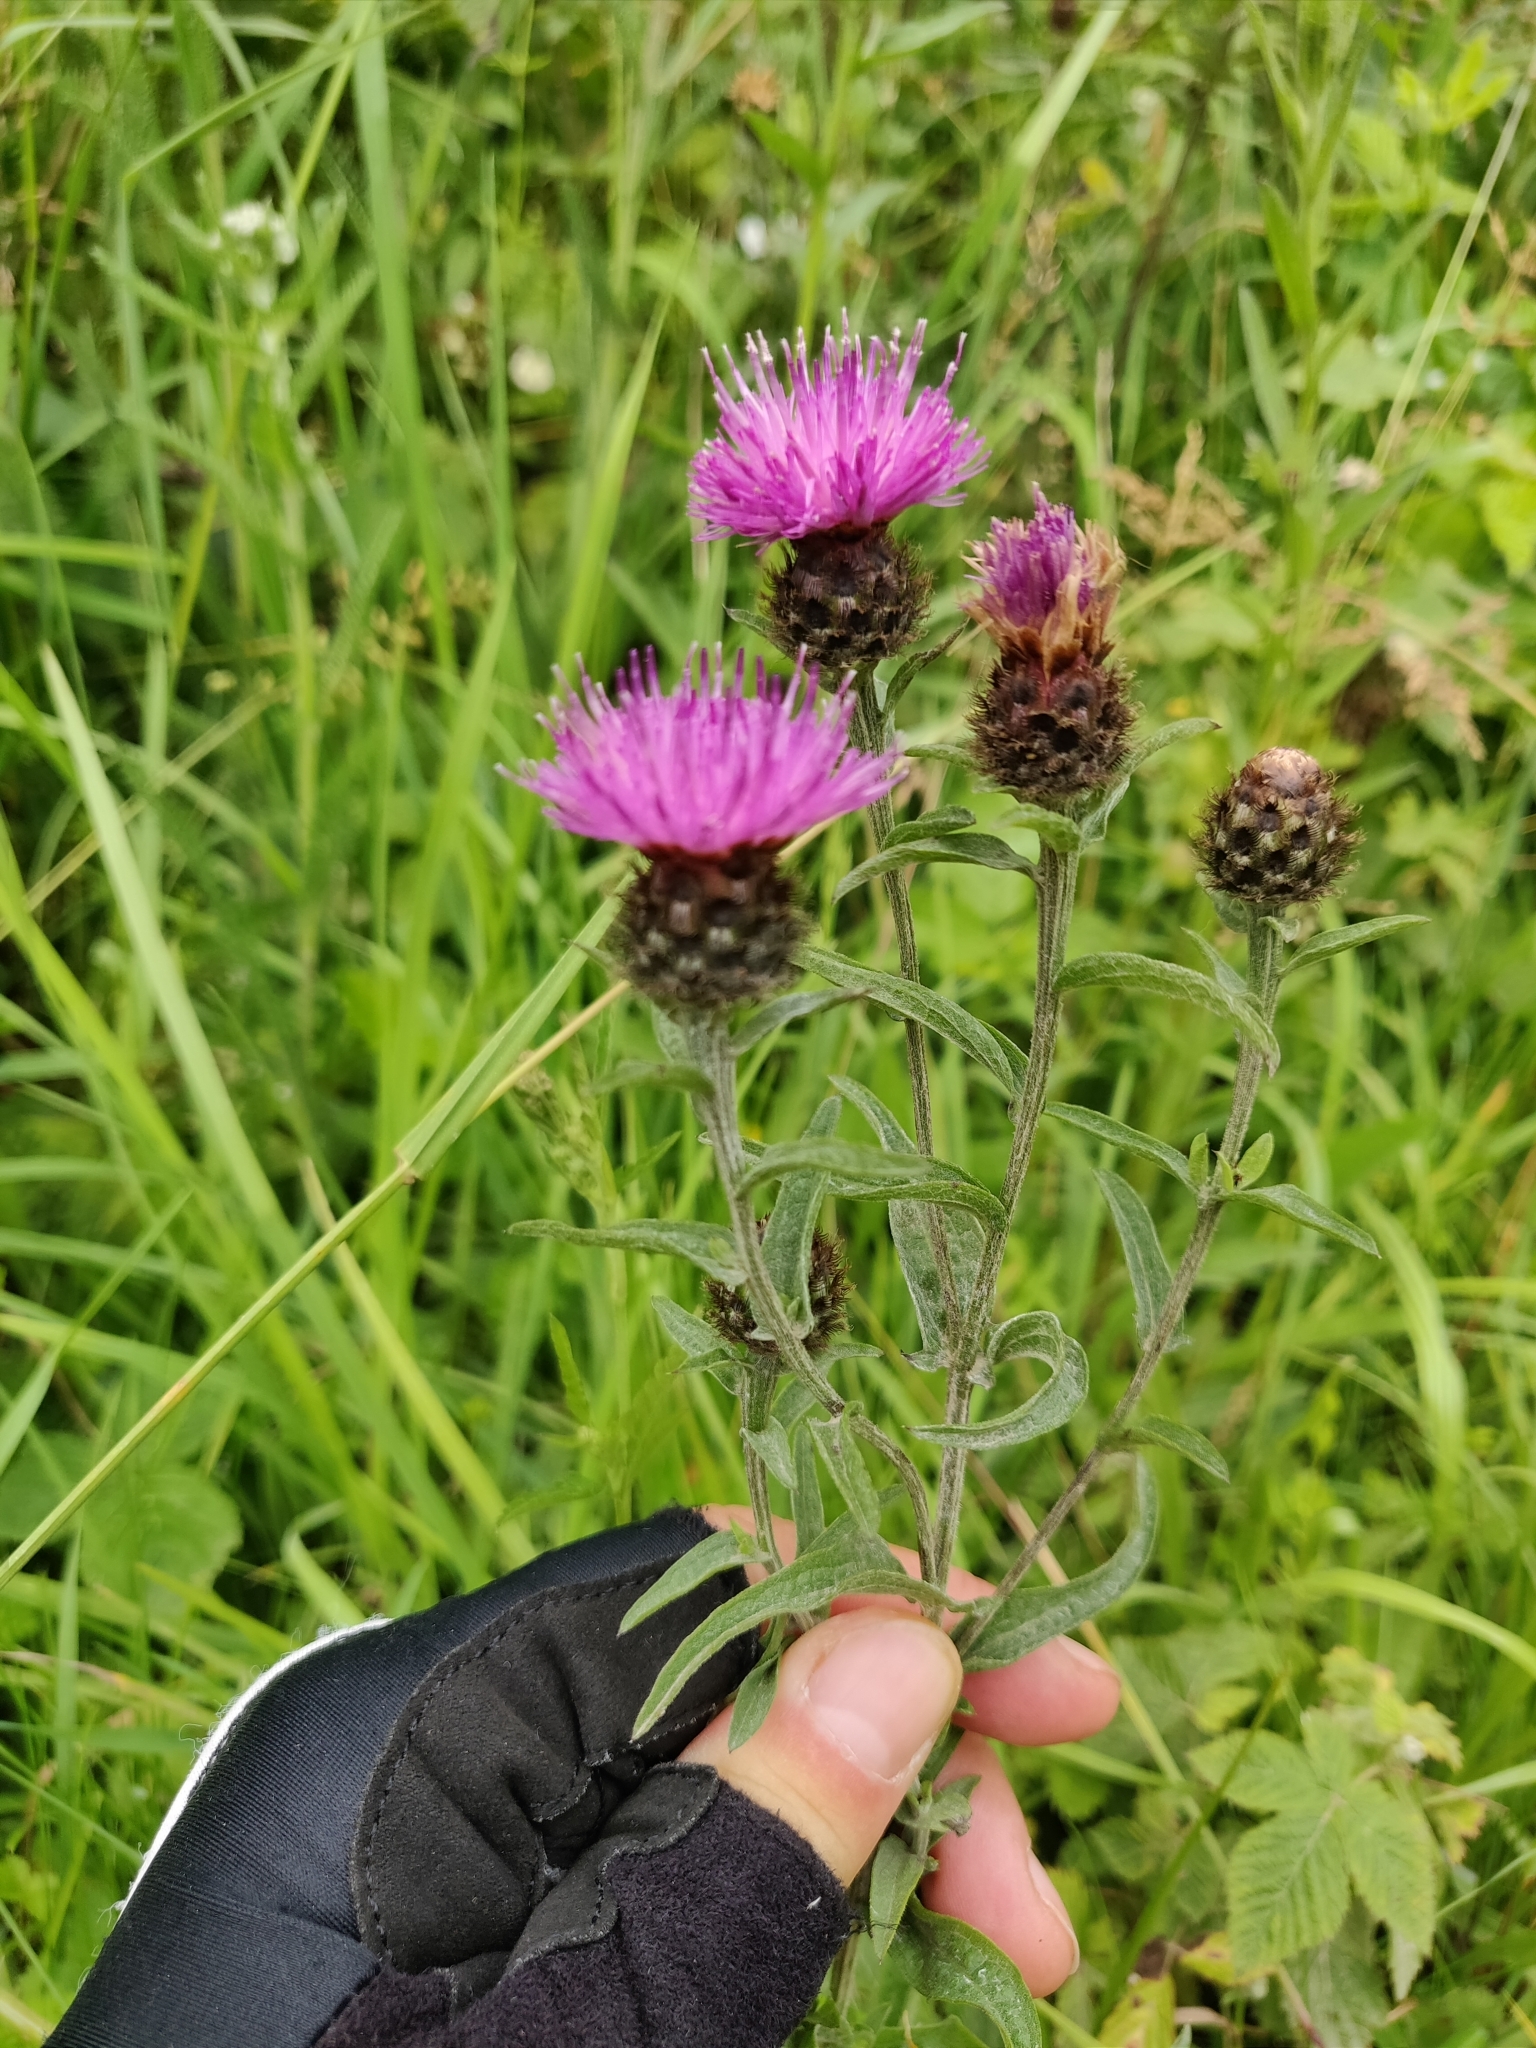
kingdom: Plantae
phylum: Tracheophyta
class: Magnoliopsida
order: Asterales
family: Asteraceae
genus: Centaurea
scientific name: Centaurea nigra
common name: Lesser knapweed
